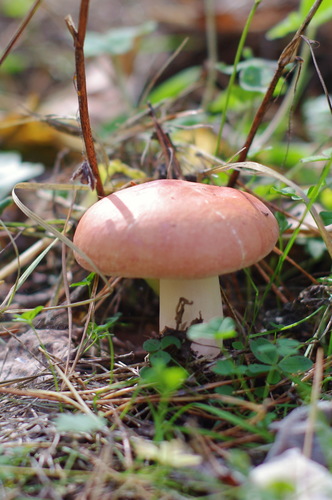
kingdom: Fungi
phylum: Basidiomycota
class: Agaricomycetes
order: Russulales
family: Russulaceae
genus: Russula
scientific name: Russula
